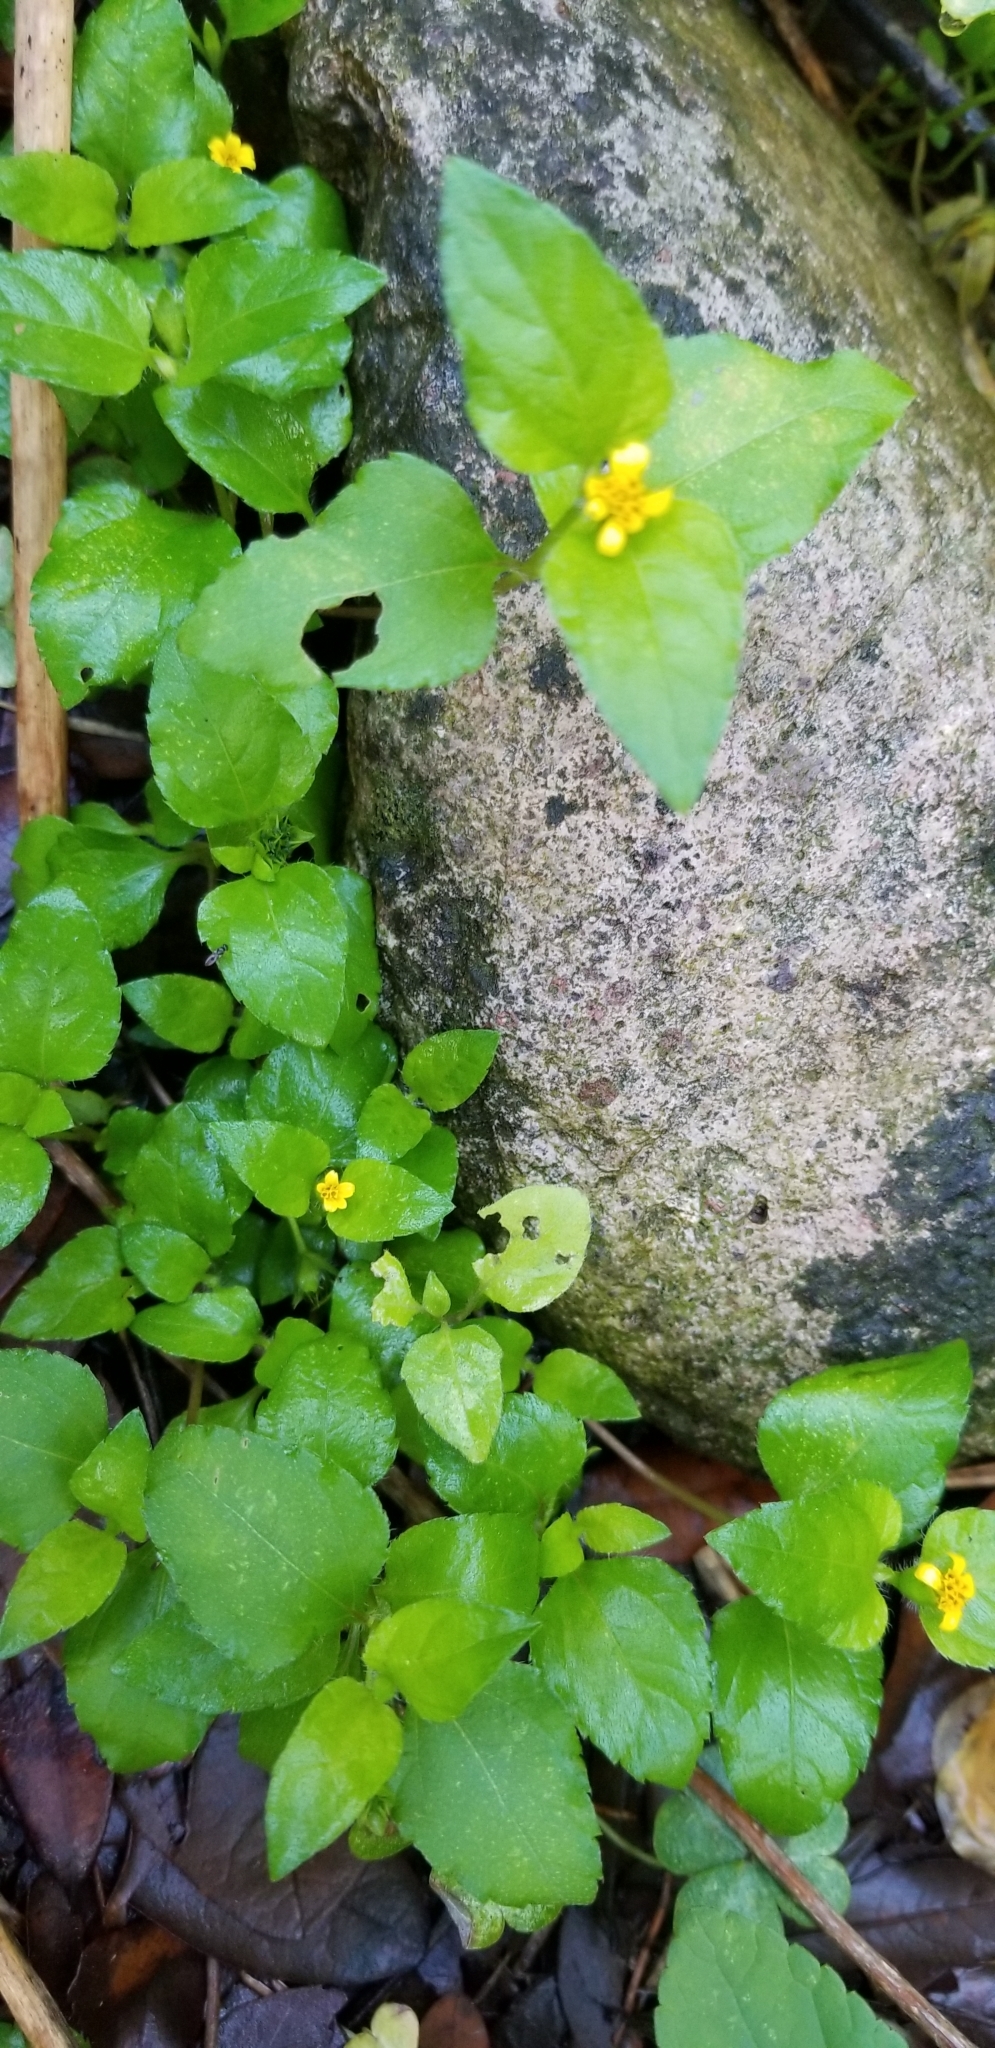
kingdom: Plantae
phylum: Tracheophyta
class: Magnoliopsida
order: Asterales
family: Asteraceae
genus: Calyptocarpus
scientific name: Calyptocarpus vialis
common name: Straggler daisy
